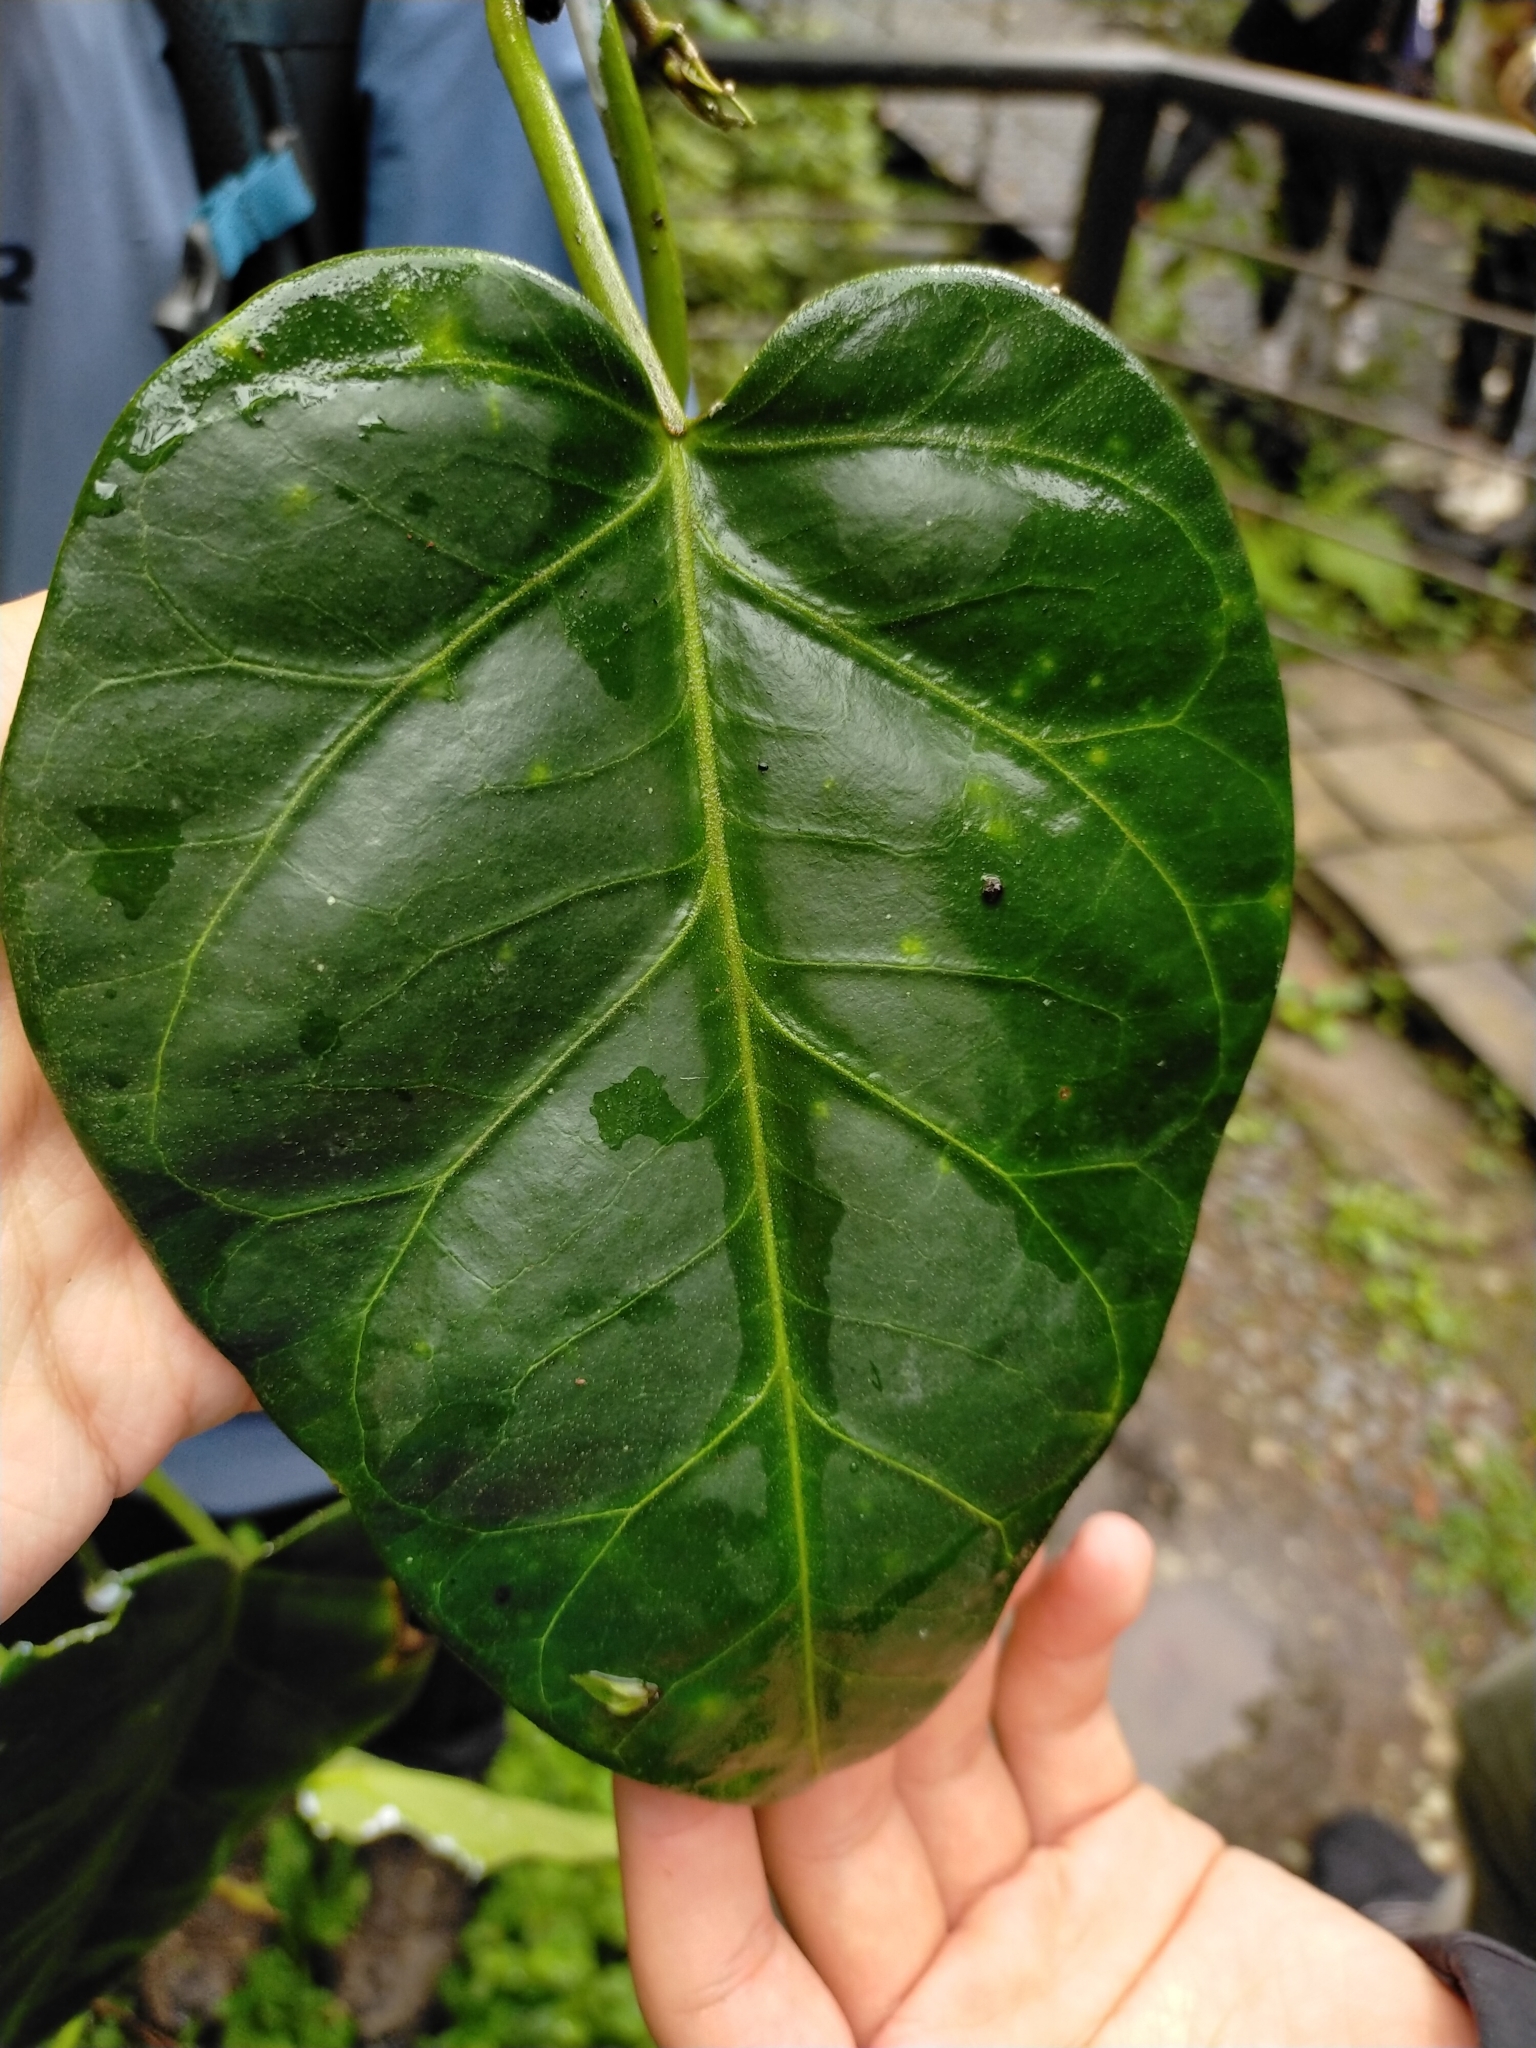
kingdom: Plantae
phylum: Tracheophyta
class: Magnoliopsida
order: Gentianales
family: Apocynaceae
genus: Sinomarsdenia
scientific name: Sinomarsdenia formosana
